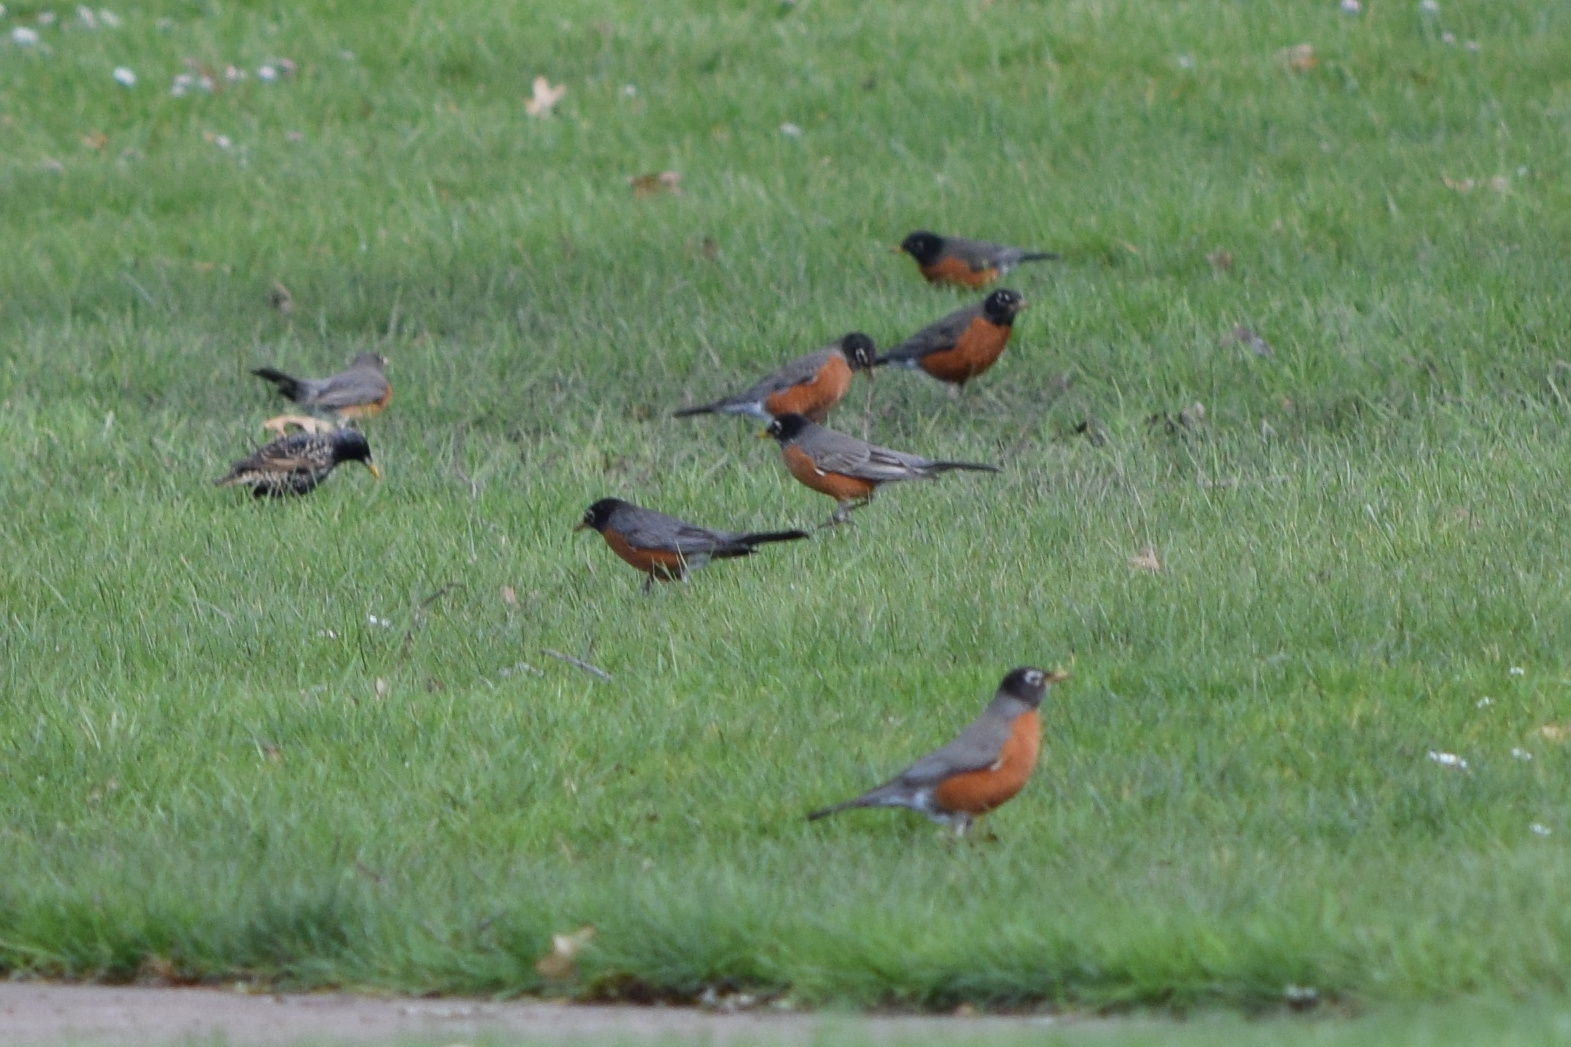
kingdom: Animalia
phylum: Chordata
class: Aves
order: Passeriformes
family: Turdidae
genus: Turdus
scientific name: Turdus migratorius
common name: American robin
